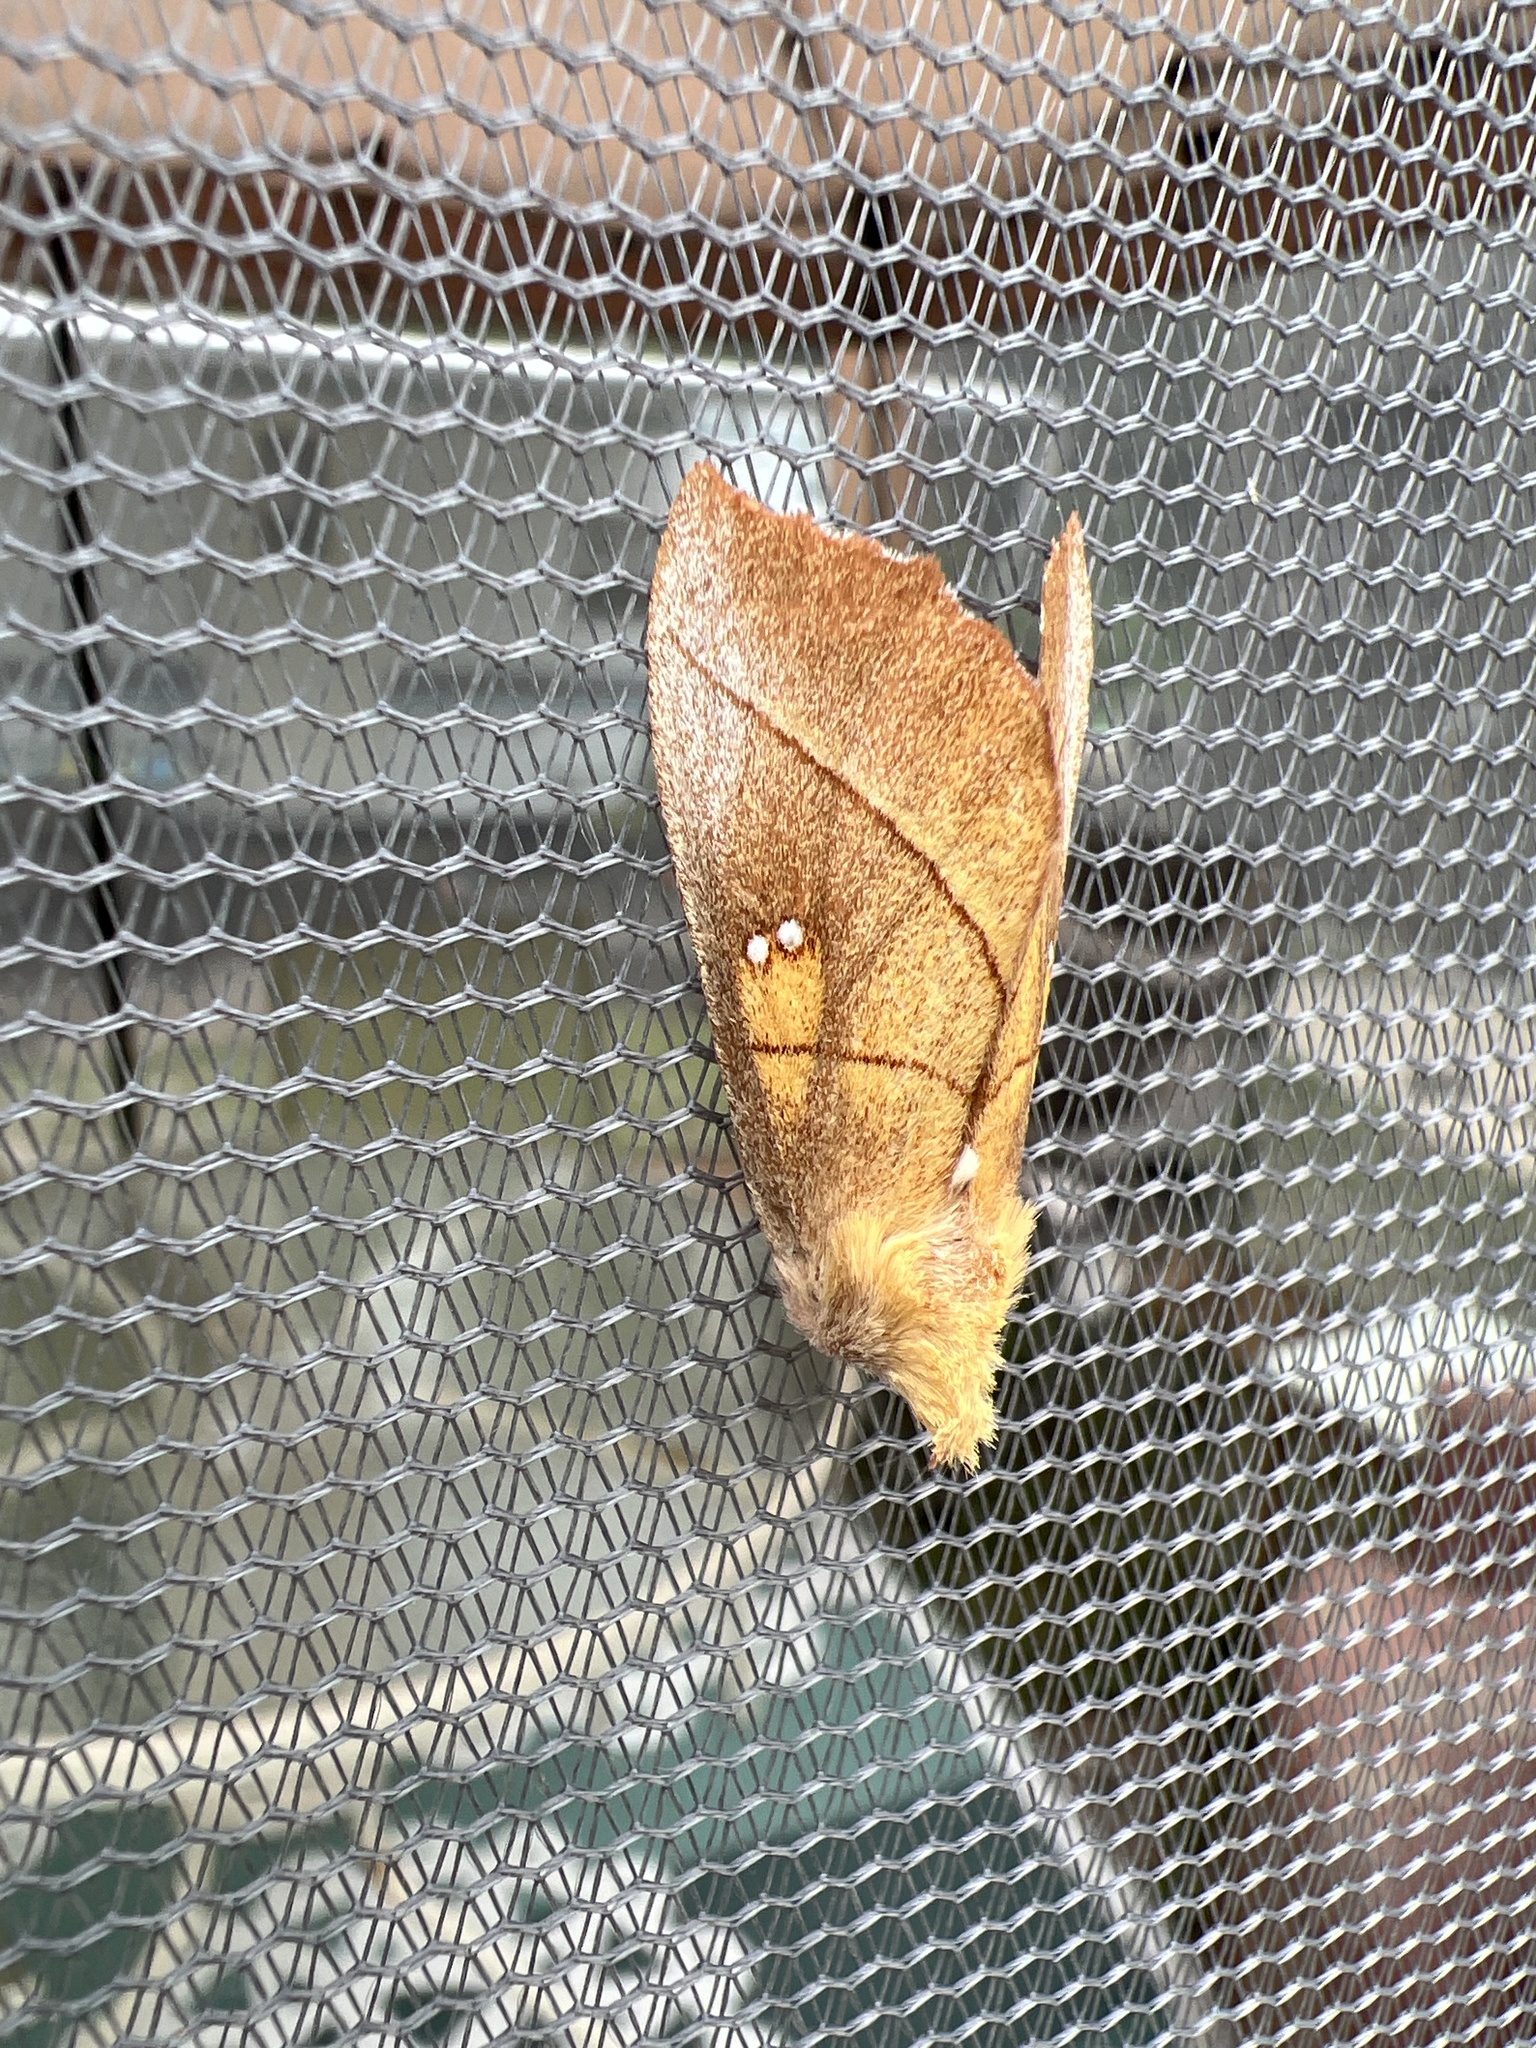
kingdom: Animalia
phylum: Arthropoda
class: Insecta
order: Lepidoptera
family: Notodontidae
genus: Nadata
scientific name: Nadata gibbosa
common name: White-dotted prominent
